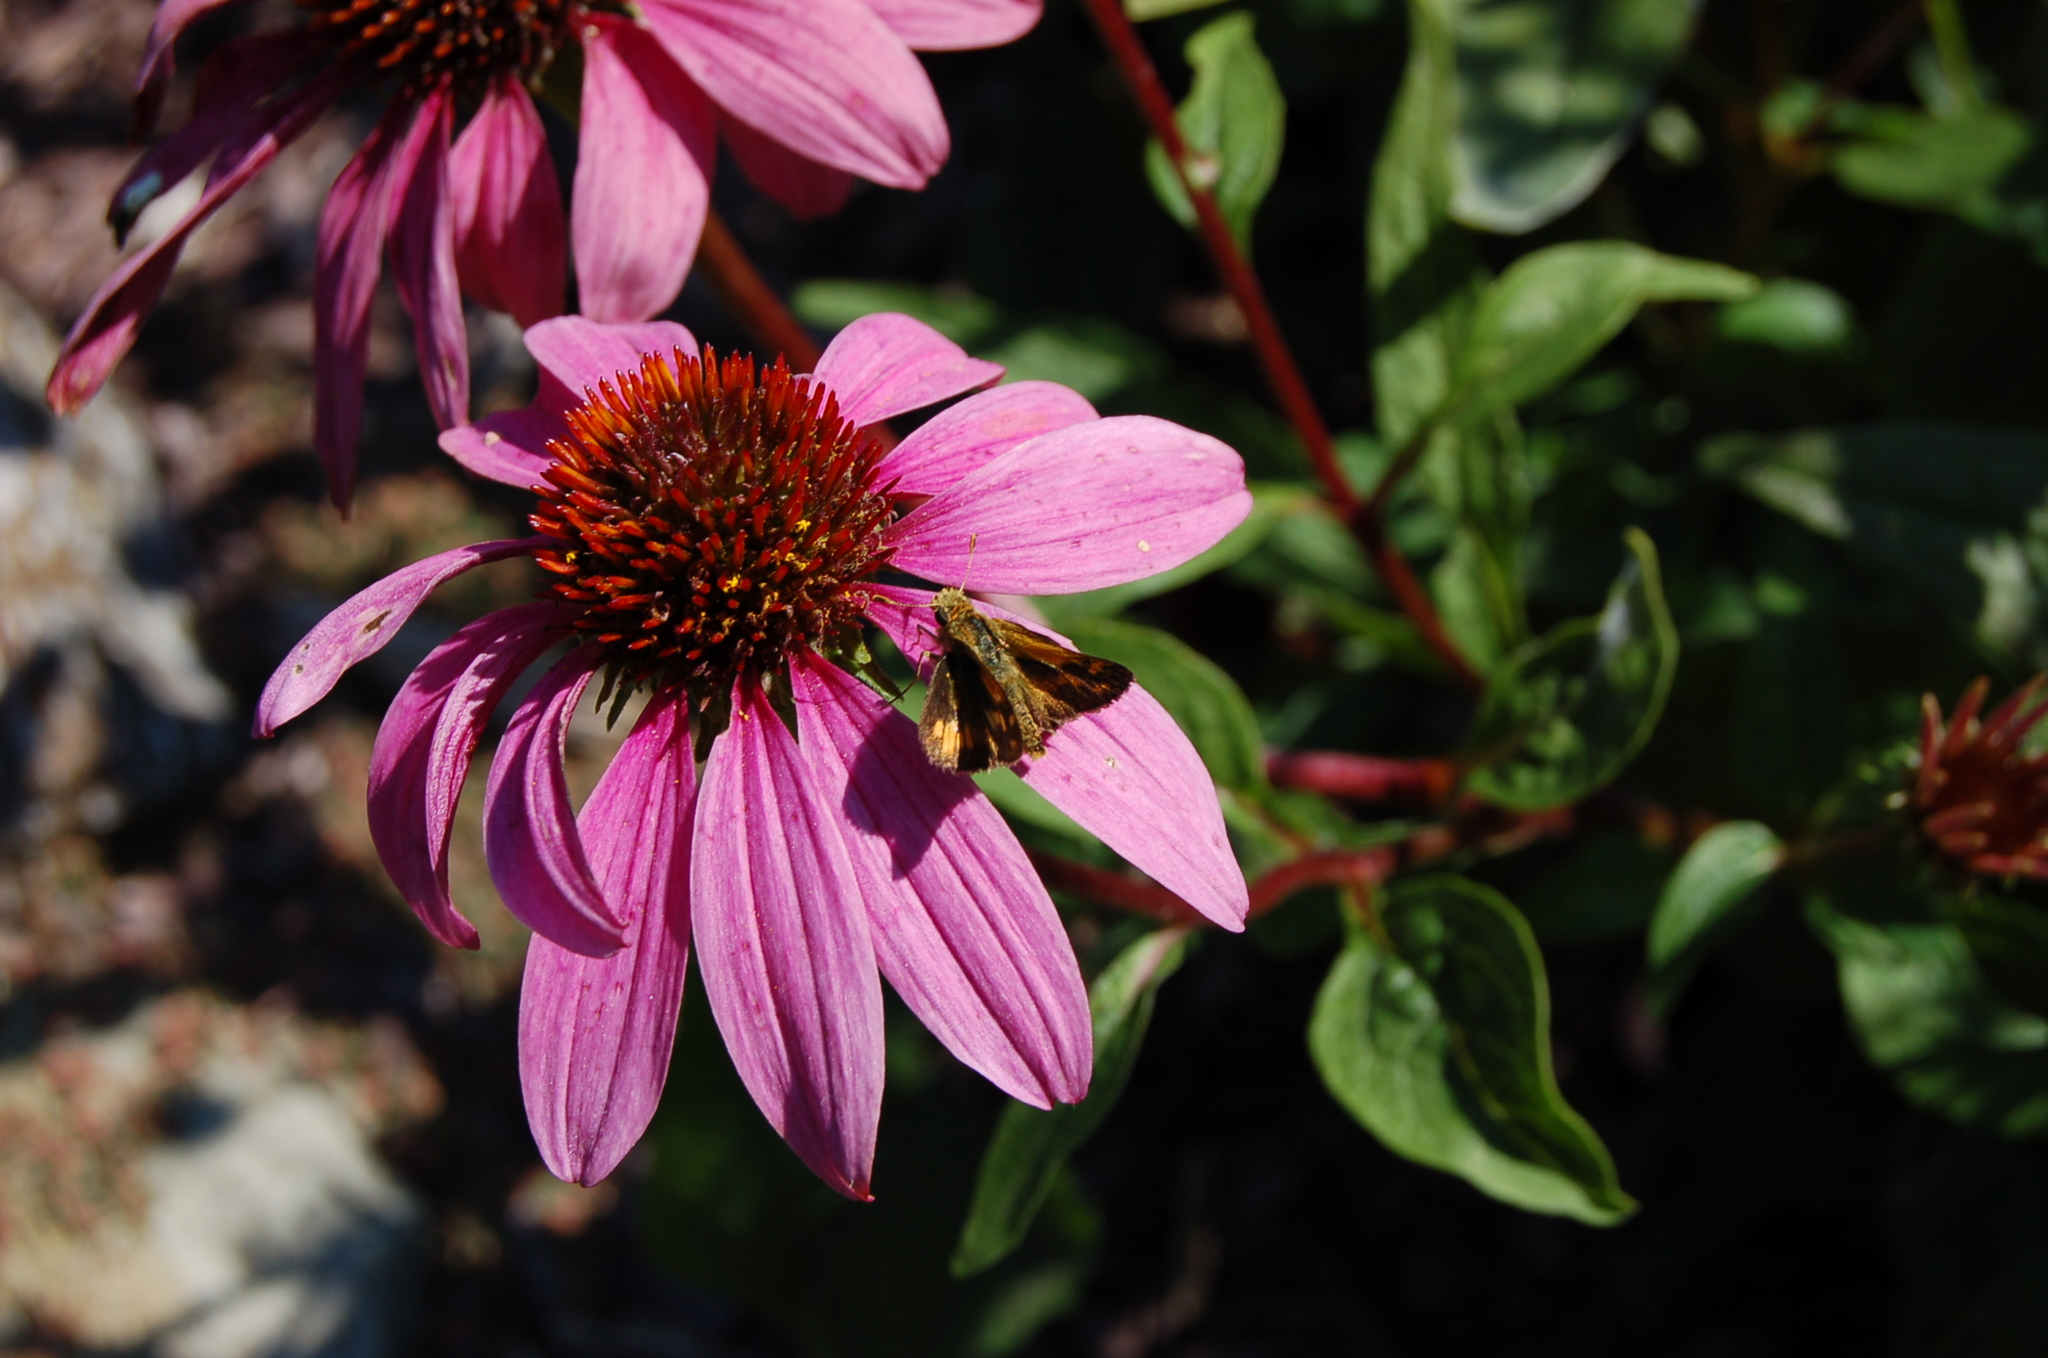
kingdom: Animalia
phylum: Arthropoda
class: Insecta
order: Lepidoptera
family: Hesperiidae
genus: Polites
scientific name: Polites coras
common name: Peck's skipper
